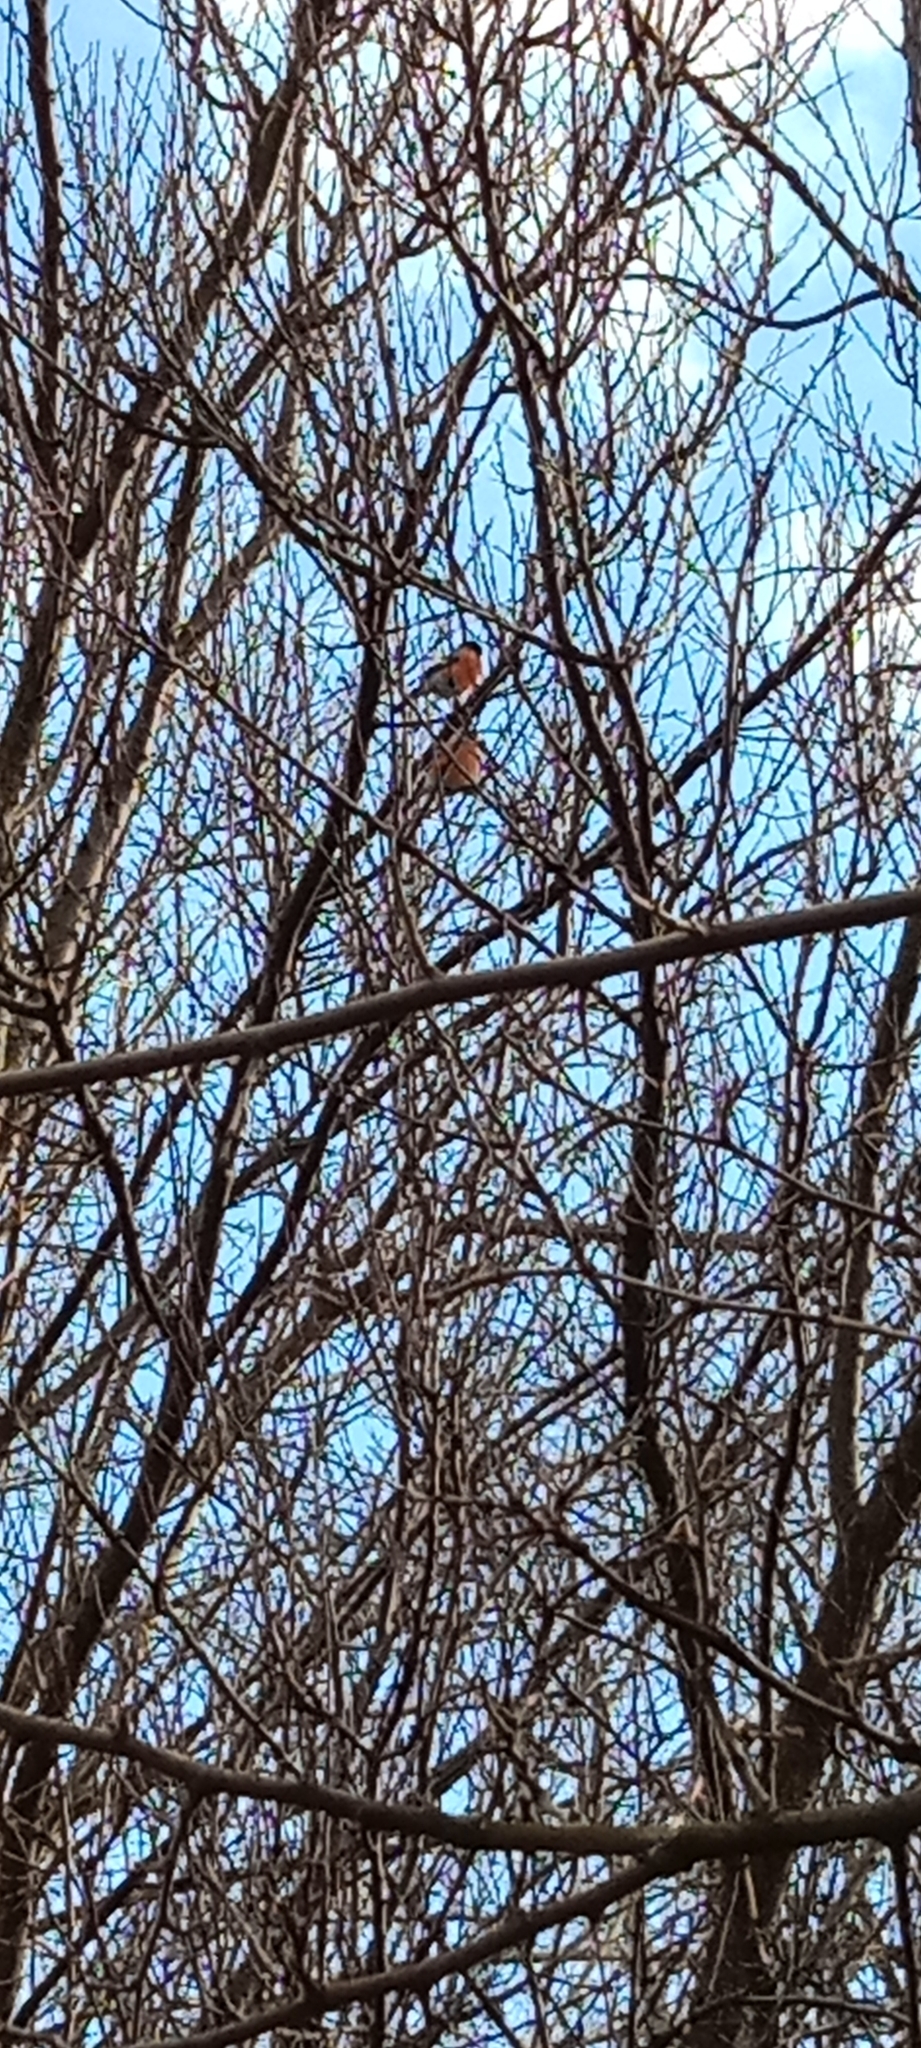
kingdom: Animalia
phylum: Chordata
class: Aves
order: Passeriformes
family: Fringillidae
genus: Pyrrhula
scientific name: Pyrrhula pyrrhula
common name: Eurasian bullfinch
